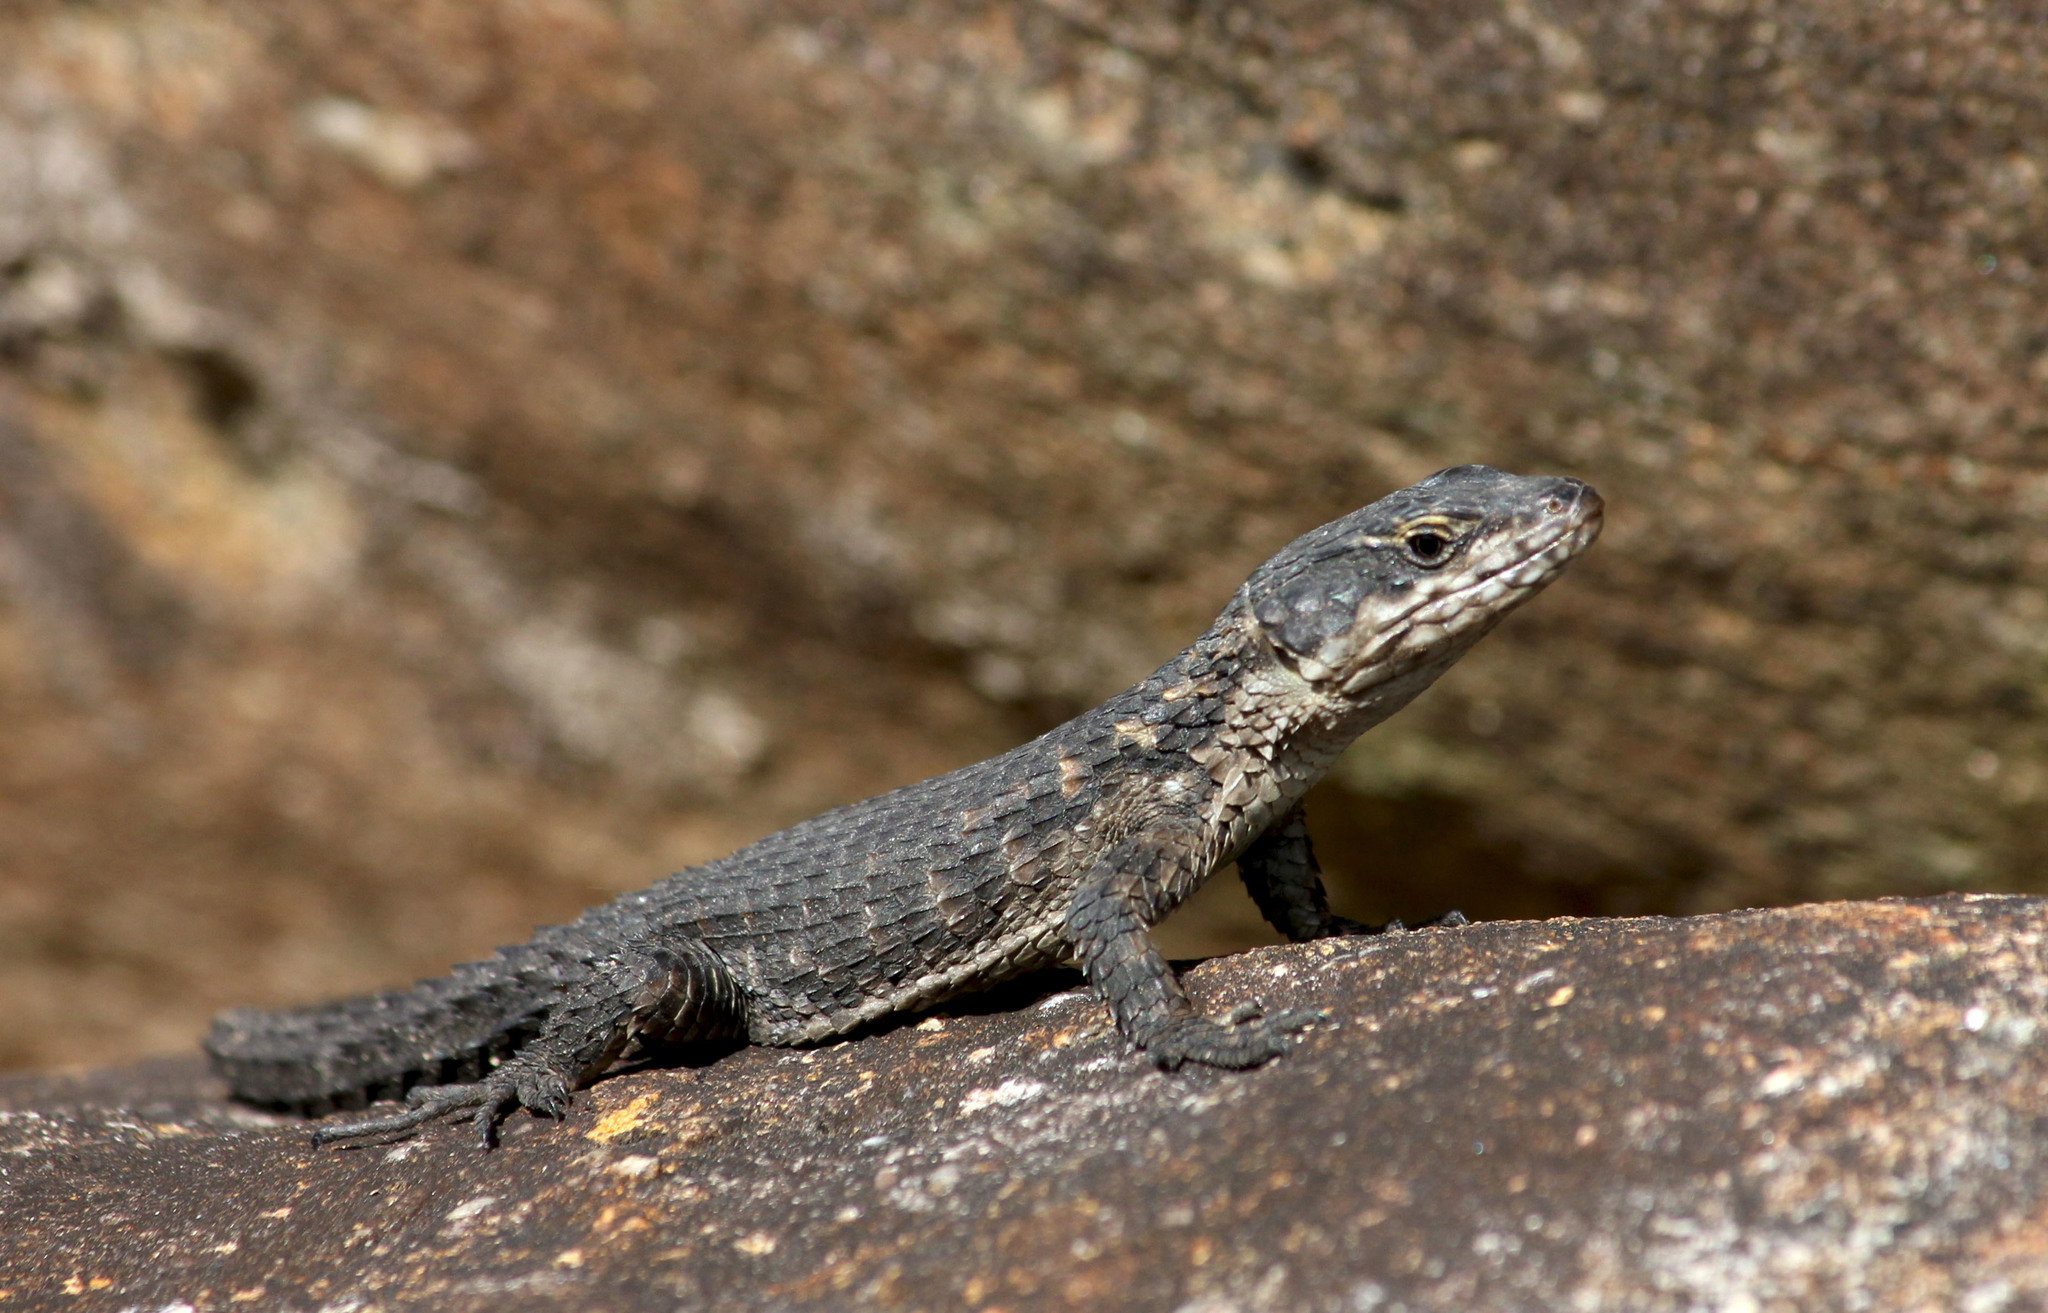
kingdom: Animalia
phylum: Chordata
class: Squamata
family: Cordylidae
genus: Cordylus
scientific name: Cordylus niger
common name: Black girdled lizard
